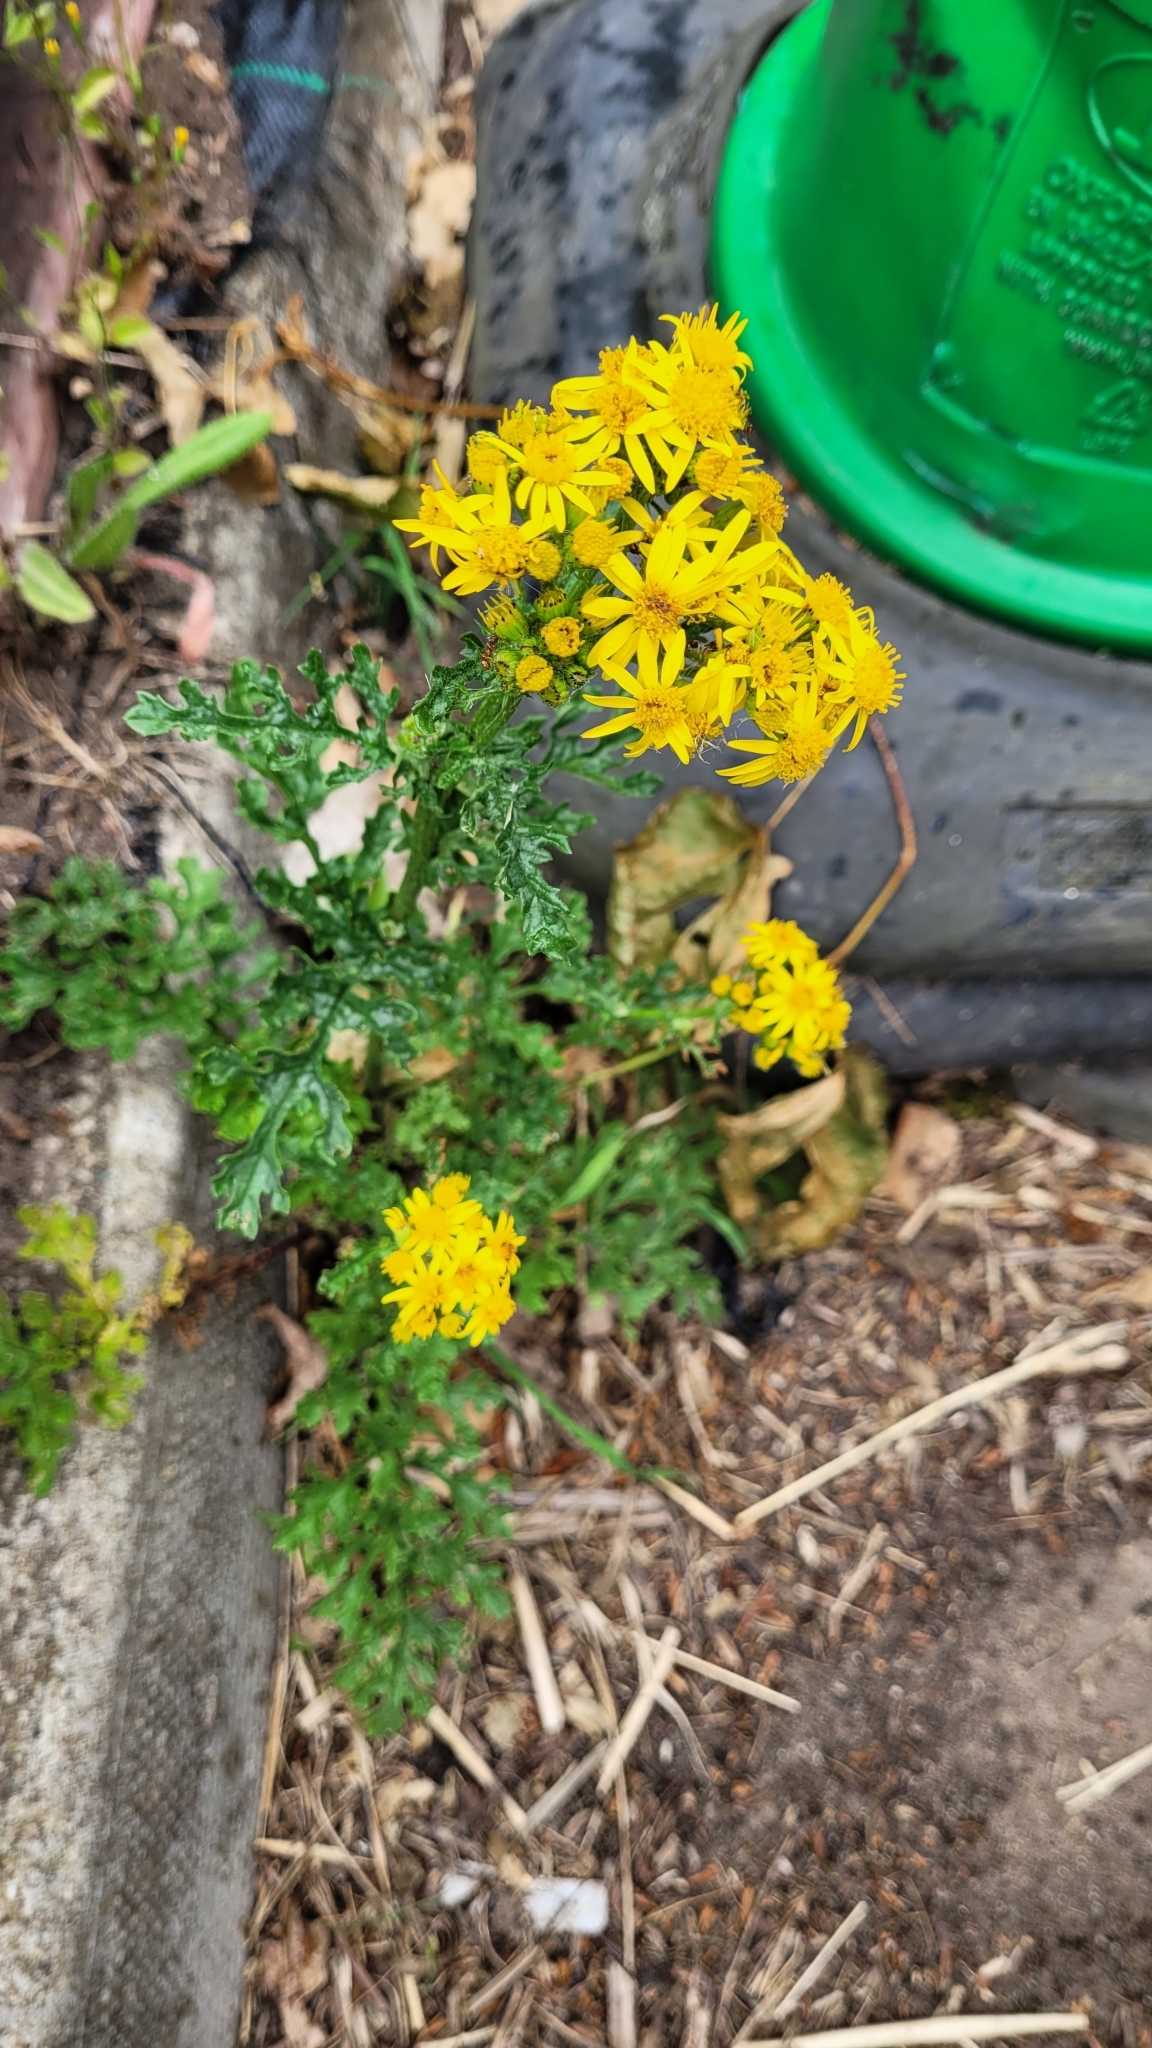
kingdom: Plantae
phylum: Tracheophyta
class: Magnoliopsida
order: Asterales
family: Asteraceae
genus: Jacobaea
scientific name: Jacobaea vulgaris
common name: Stinking willie
